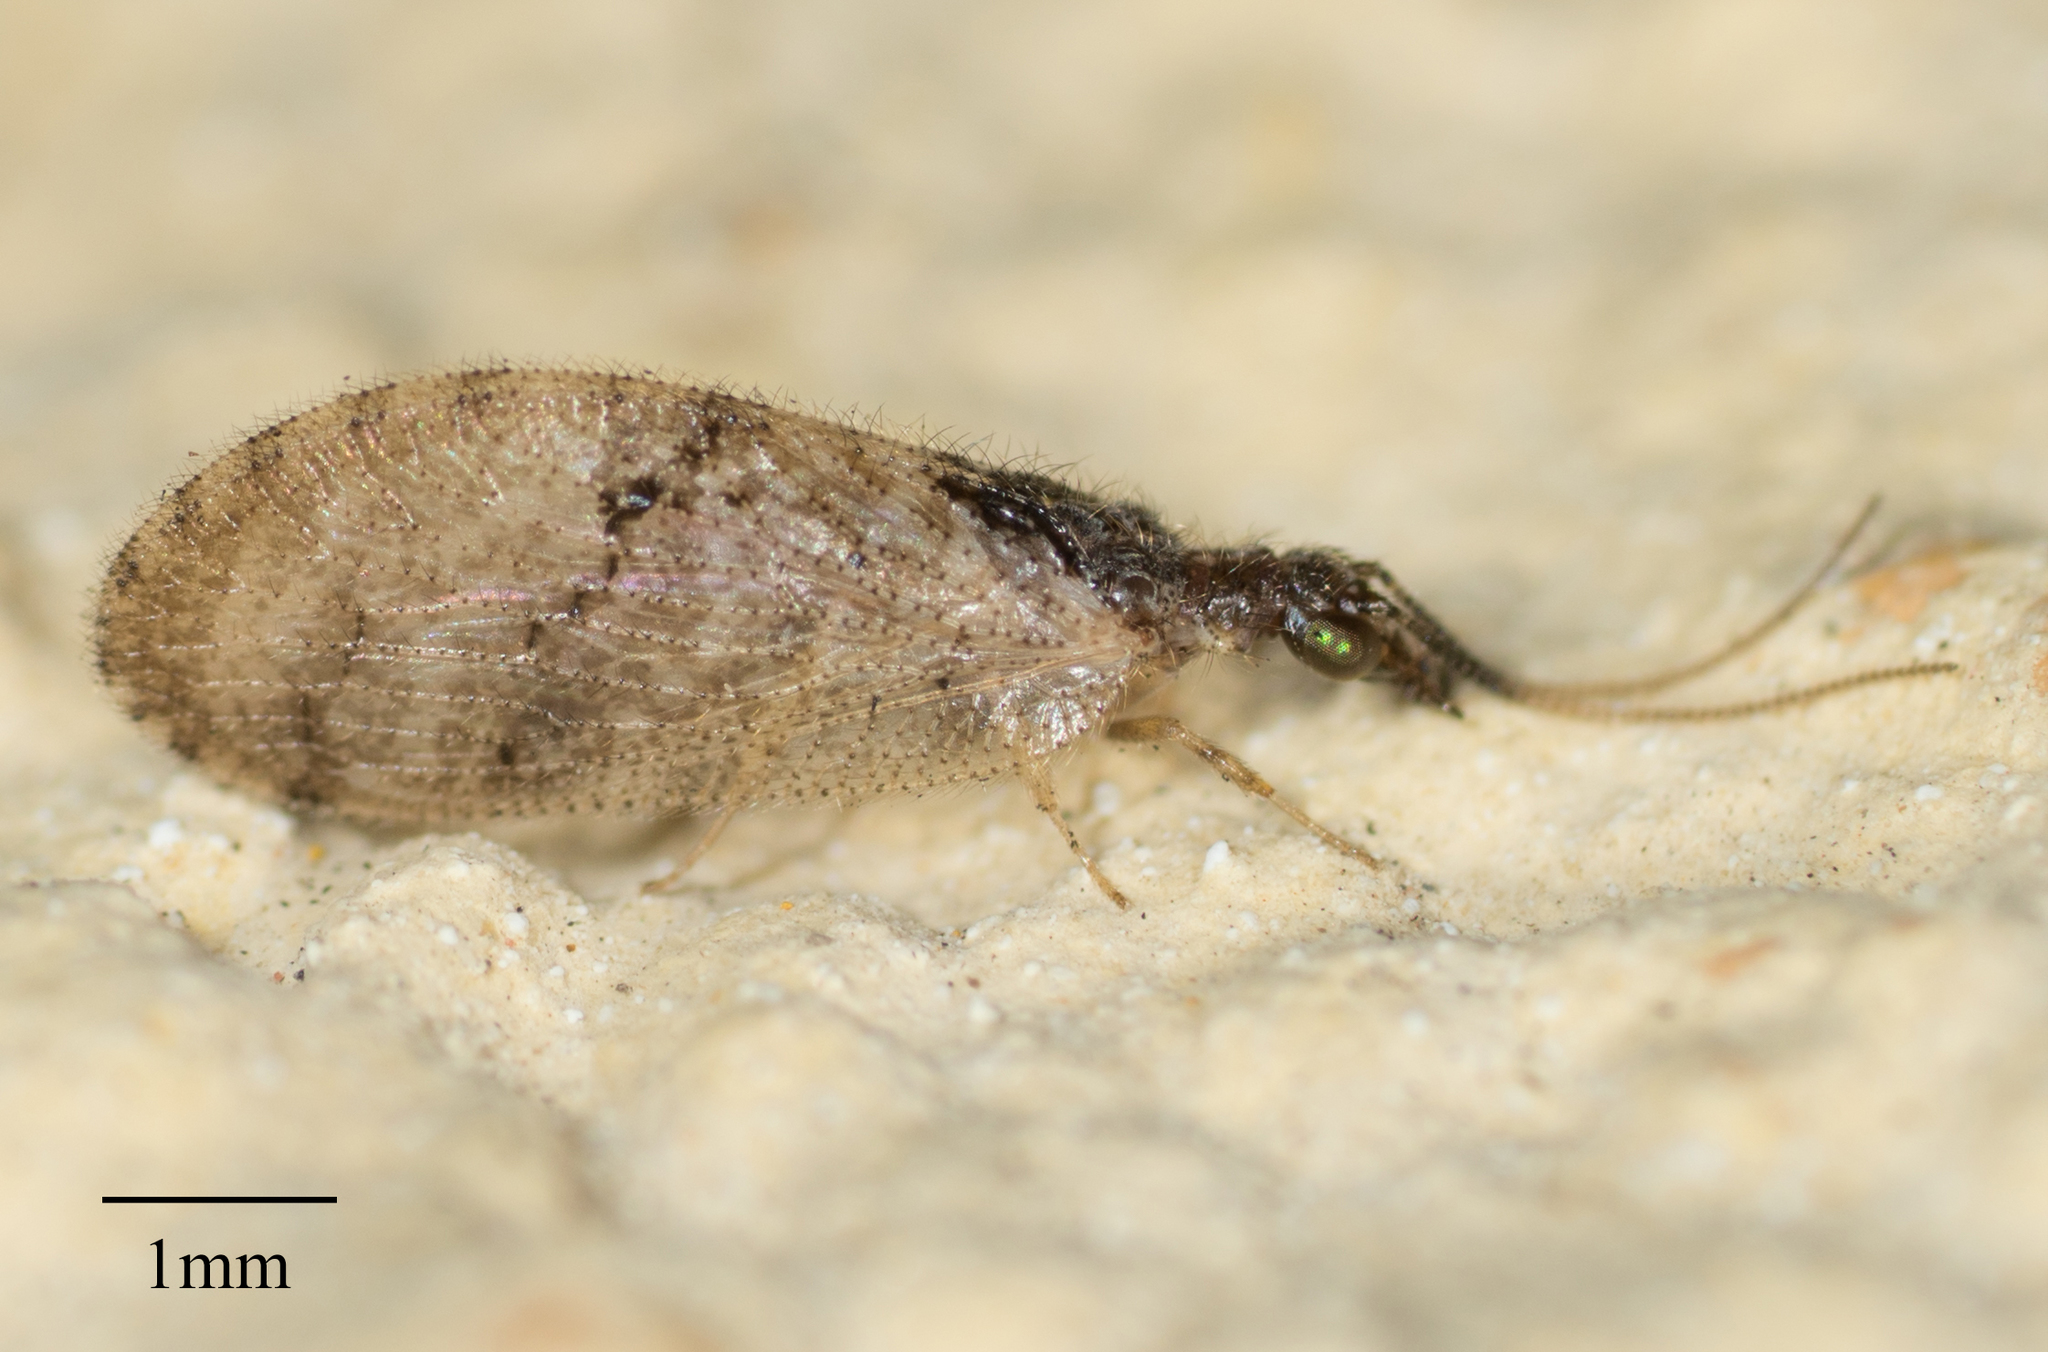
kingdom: Animalia
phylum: Arthropoda
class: Insecta
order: Neuroptera
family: Hemerobiidae
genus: Sympherobius
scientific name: Sympherobius barberi
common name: Brown lacewing
